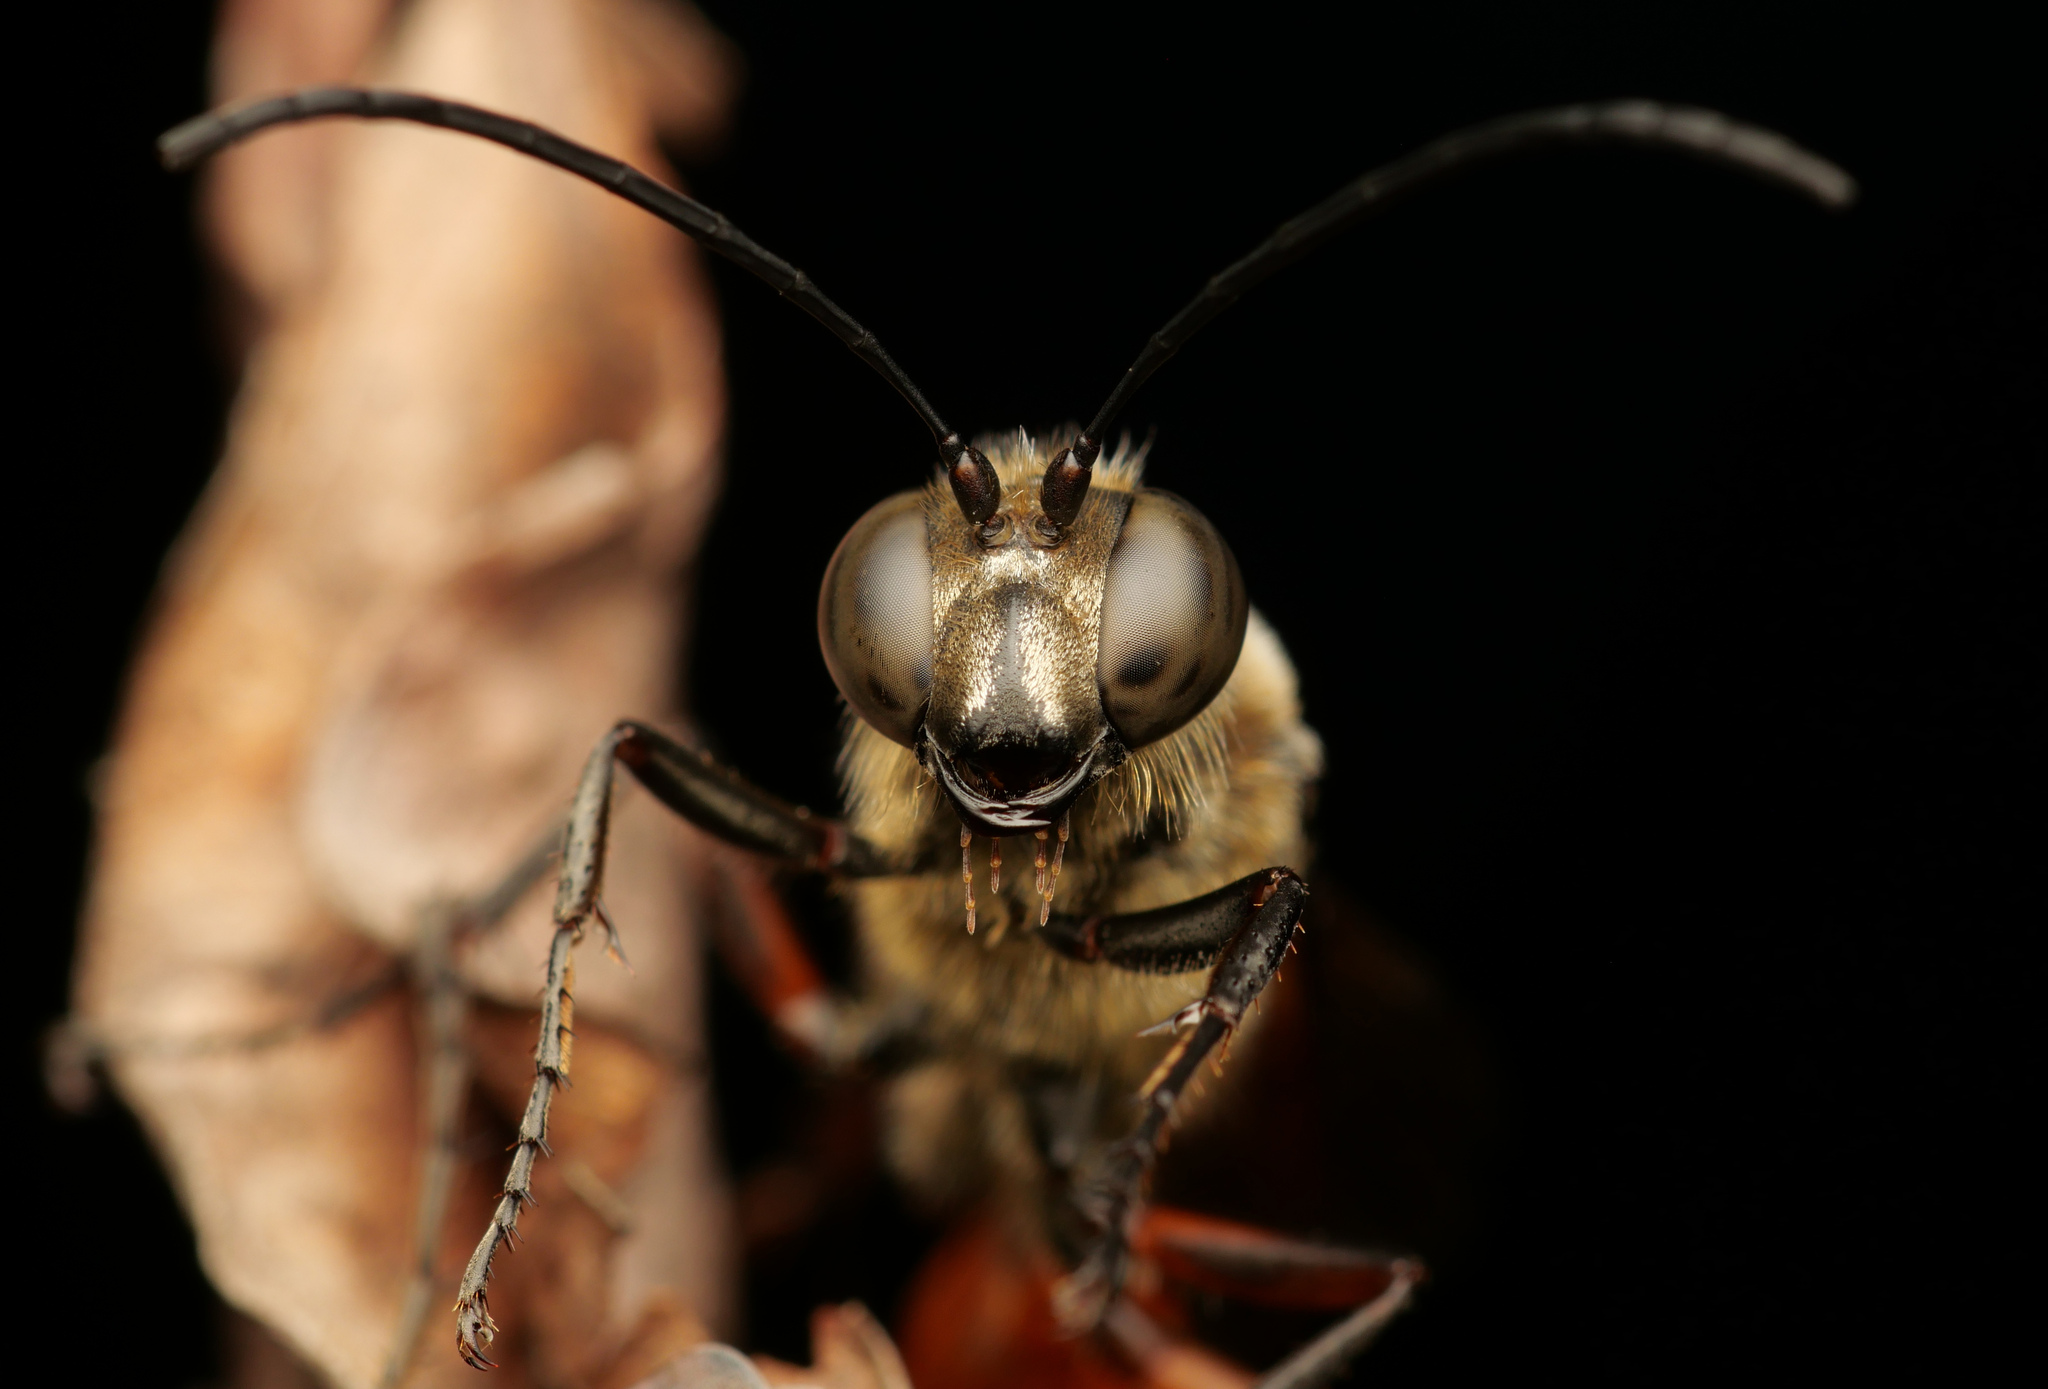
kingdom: Animalia
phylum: Arthropoda
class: Insecta
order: Hymenoptera
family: Sphecidae
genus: Sphex
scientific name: Sphex sericeus
